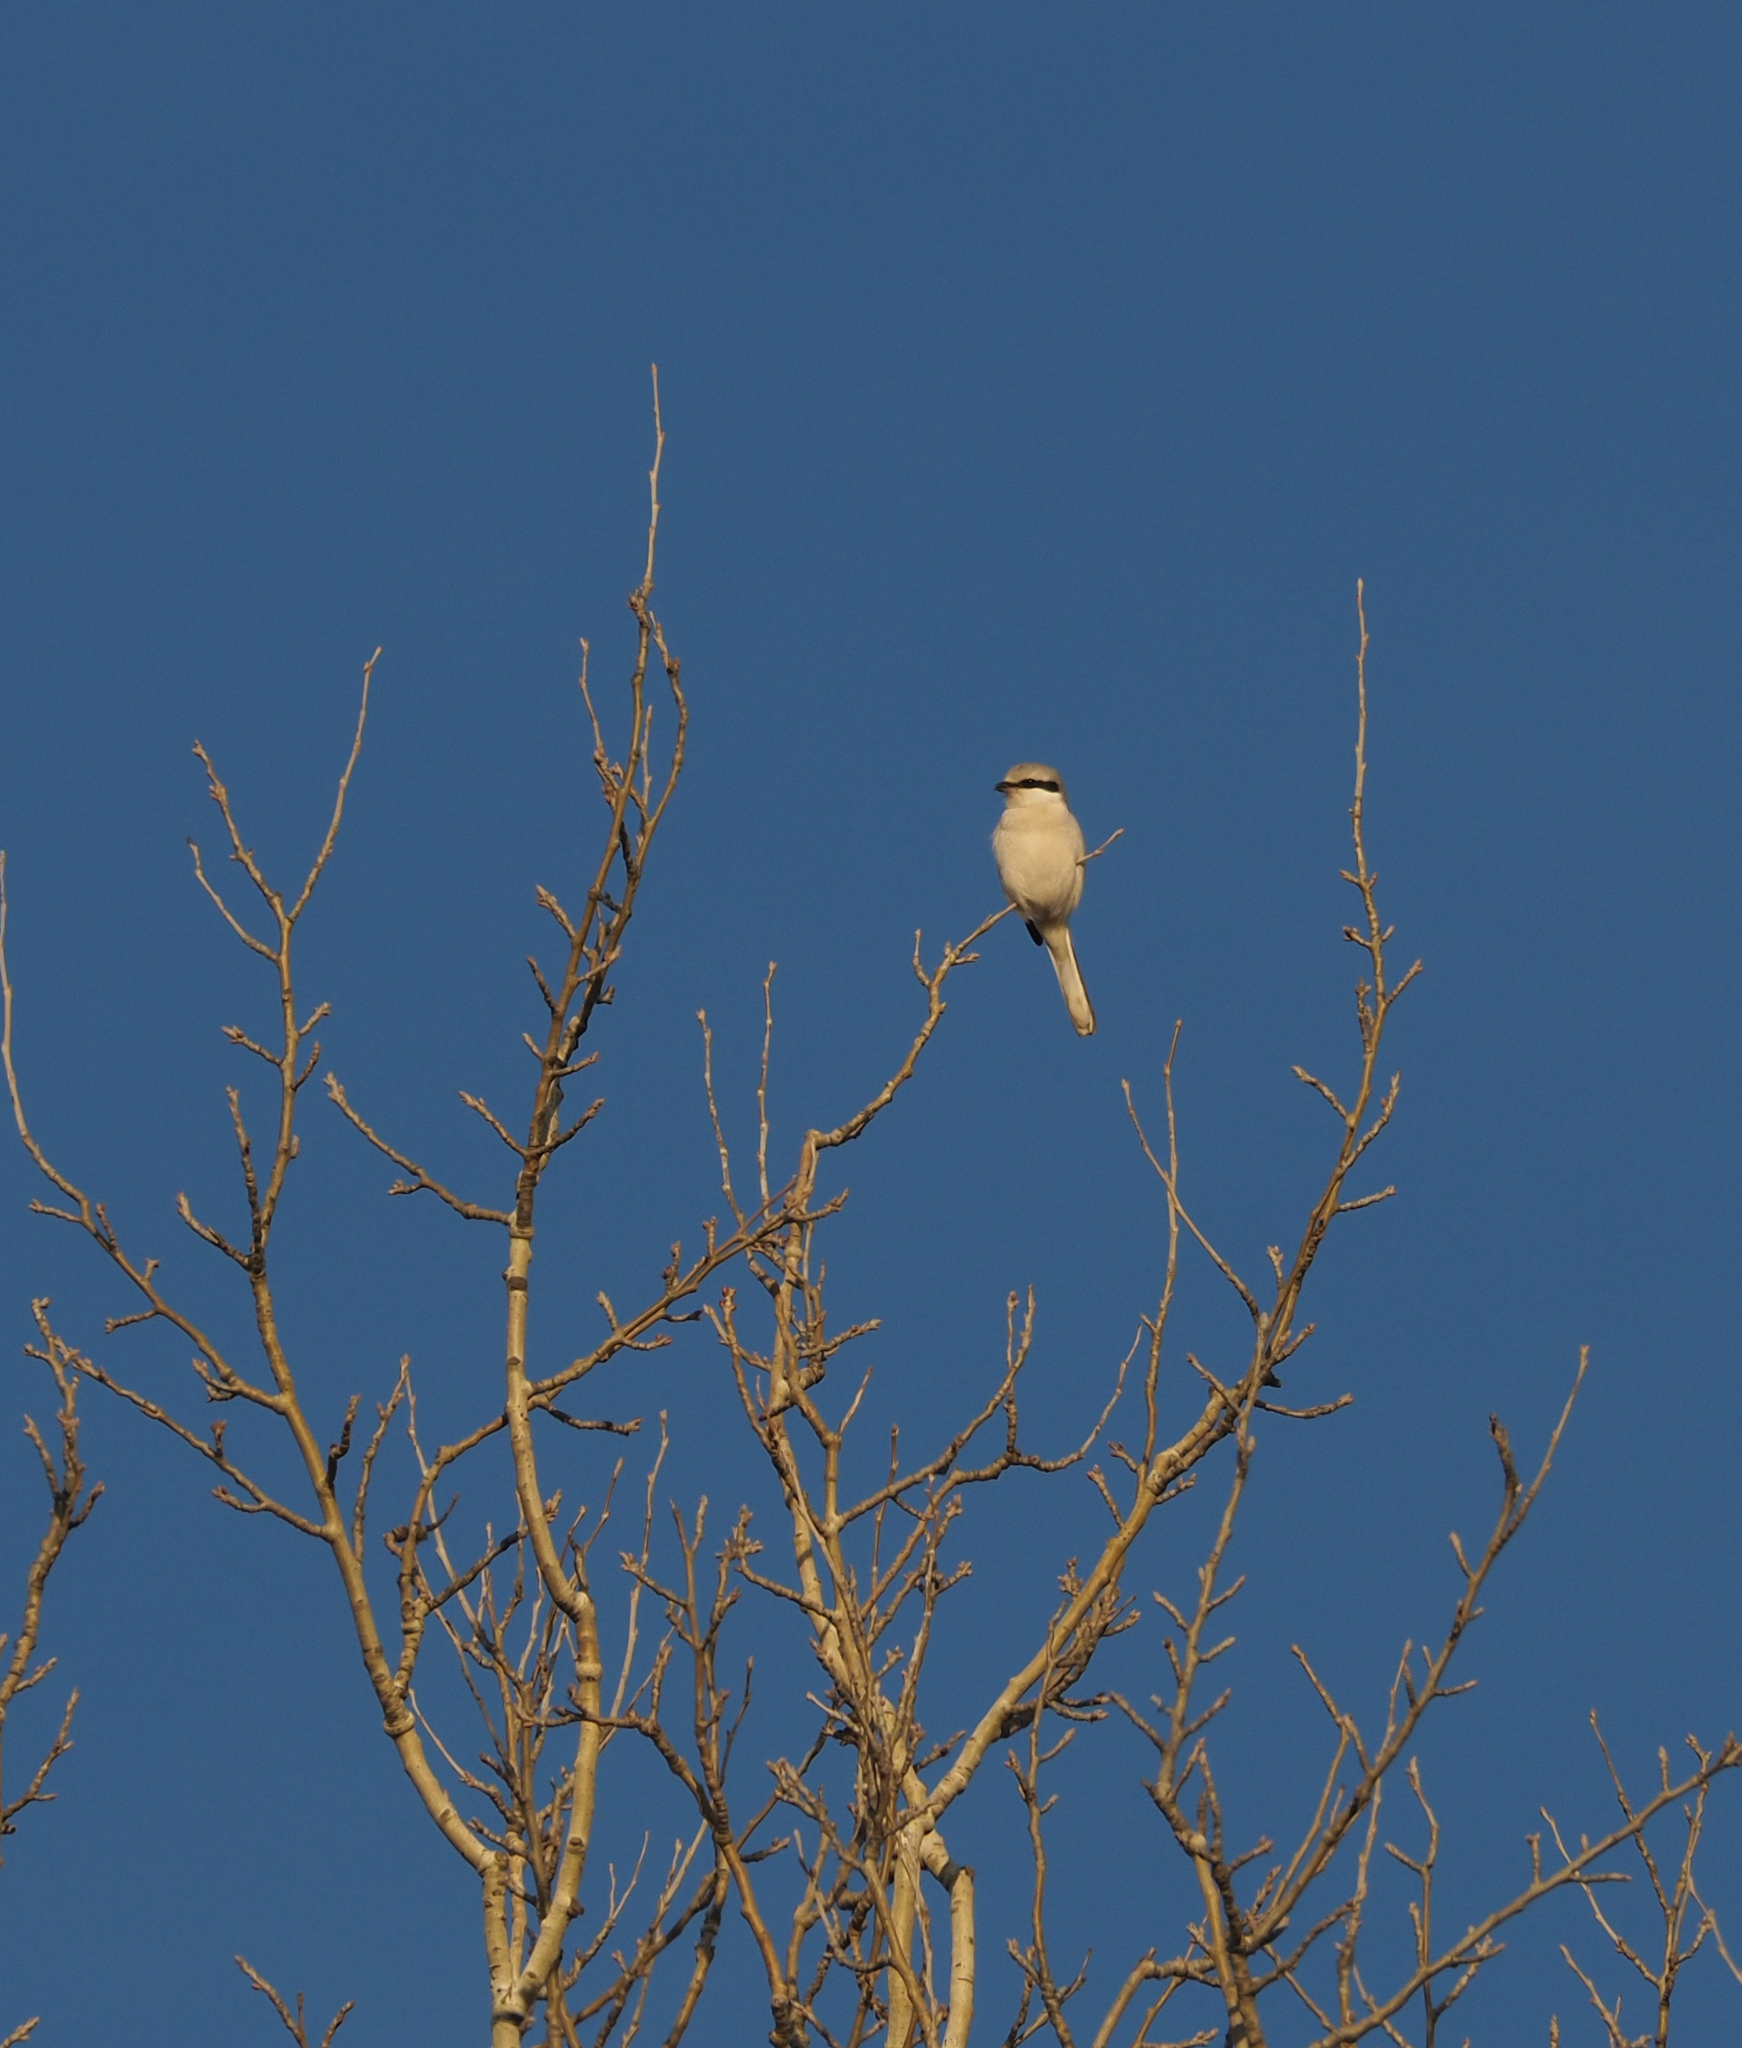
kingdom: Animalia
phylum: Chordata
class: Aves
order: Passeriformes
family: Laniidae
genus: Lanius
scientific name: Lanius excubitor
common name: Great grey shrike
